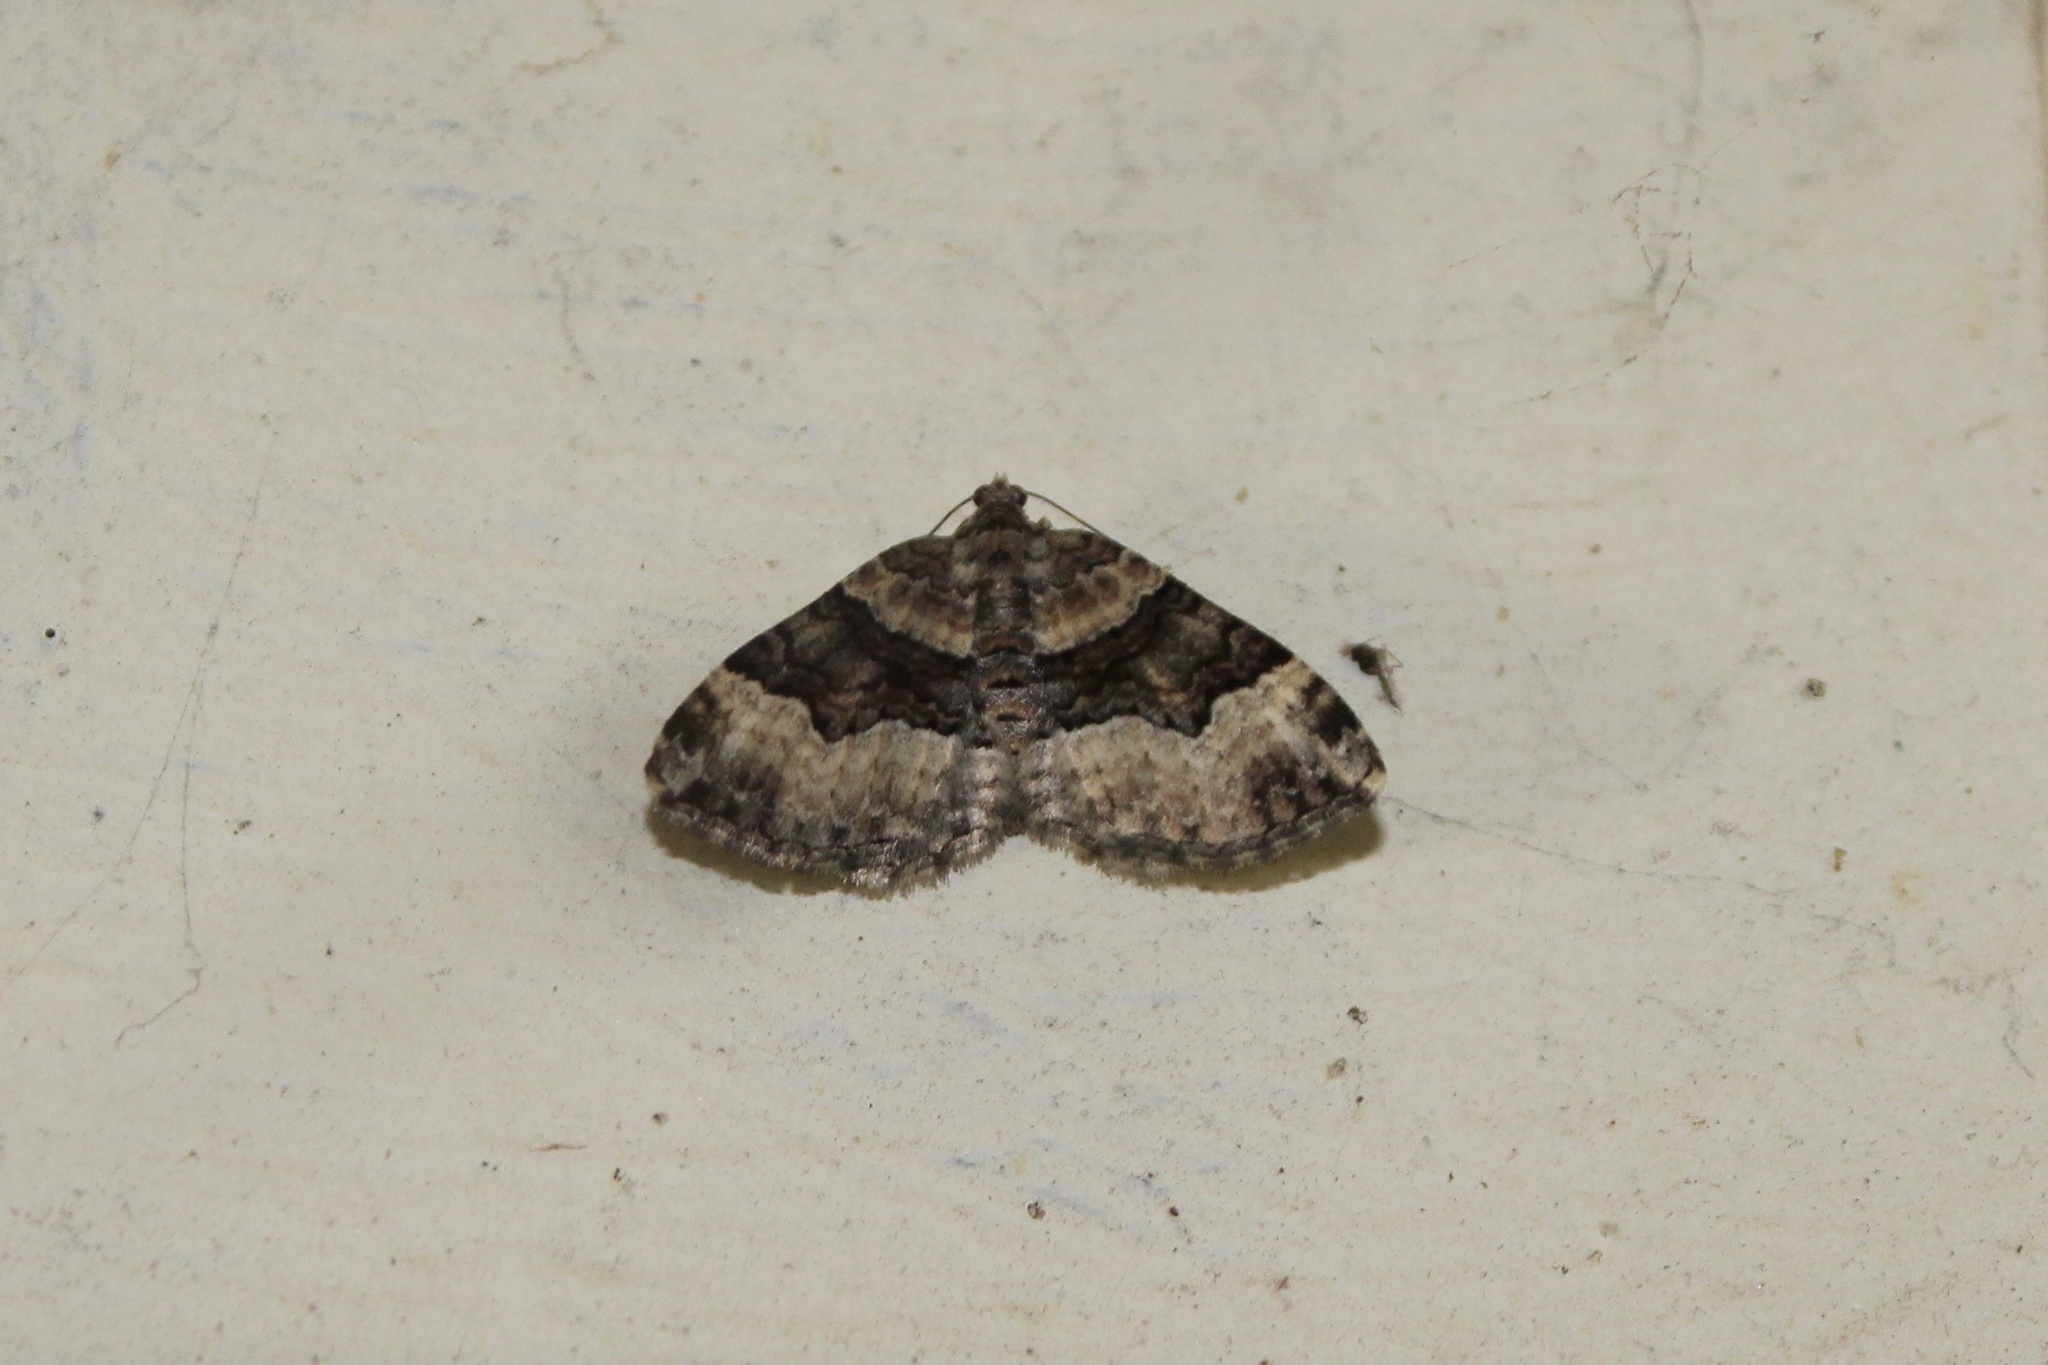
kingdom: Animalia
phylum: Arthropoda
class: Insecta
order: Lepidoptera
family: Geometridae
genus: Xanthorhoe
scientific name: Xanthorhoe lacustrata
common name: Toothed brown carpet
